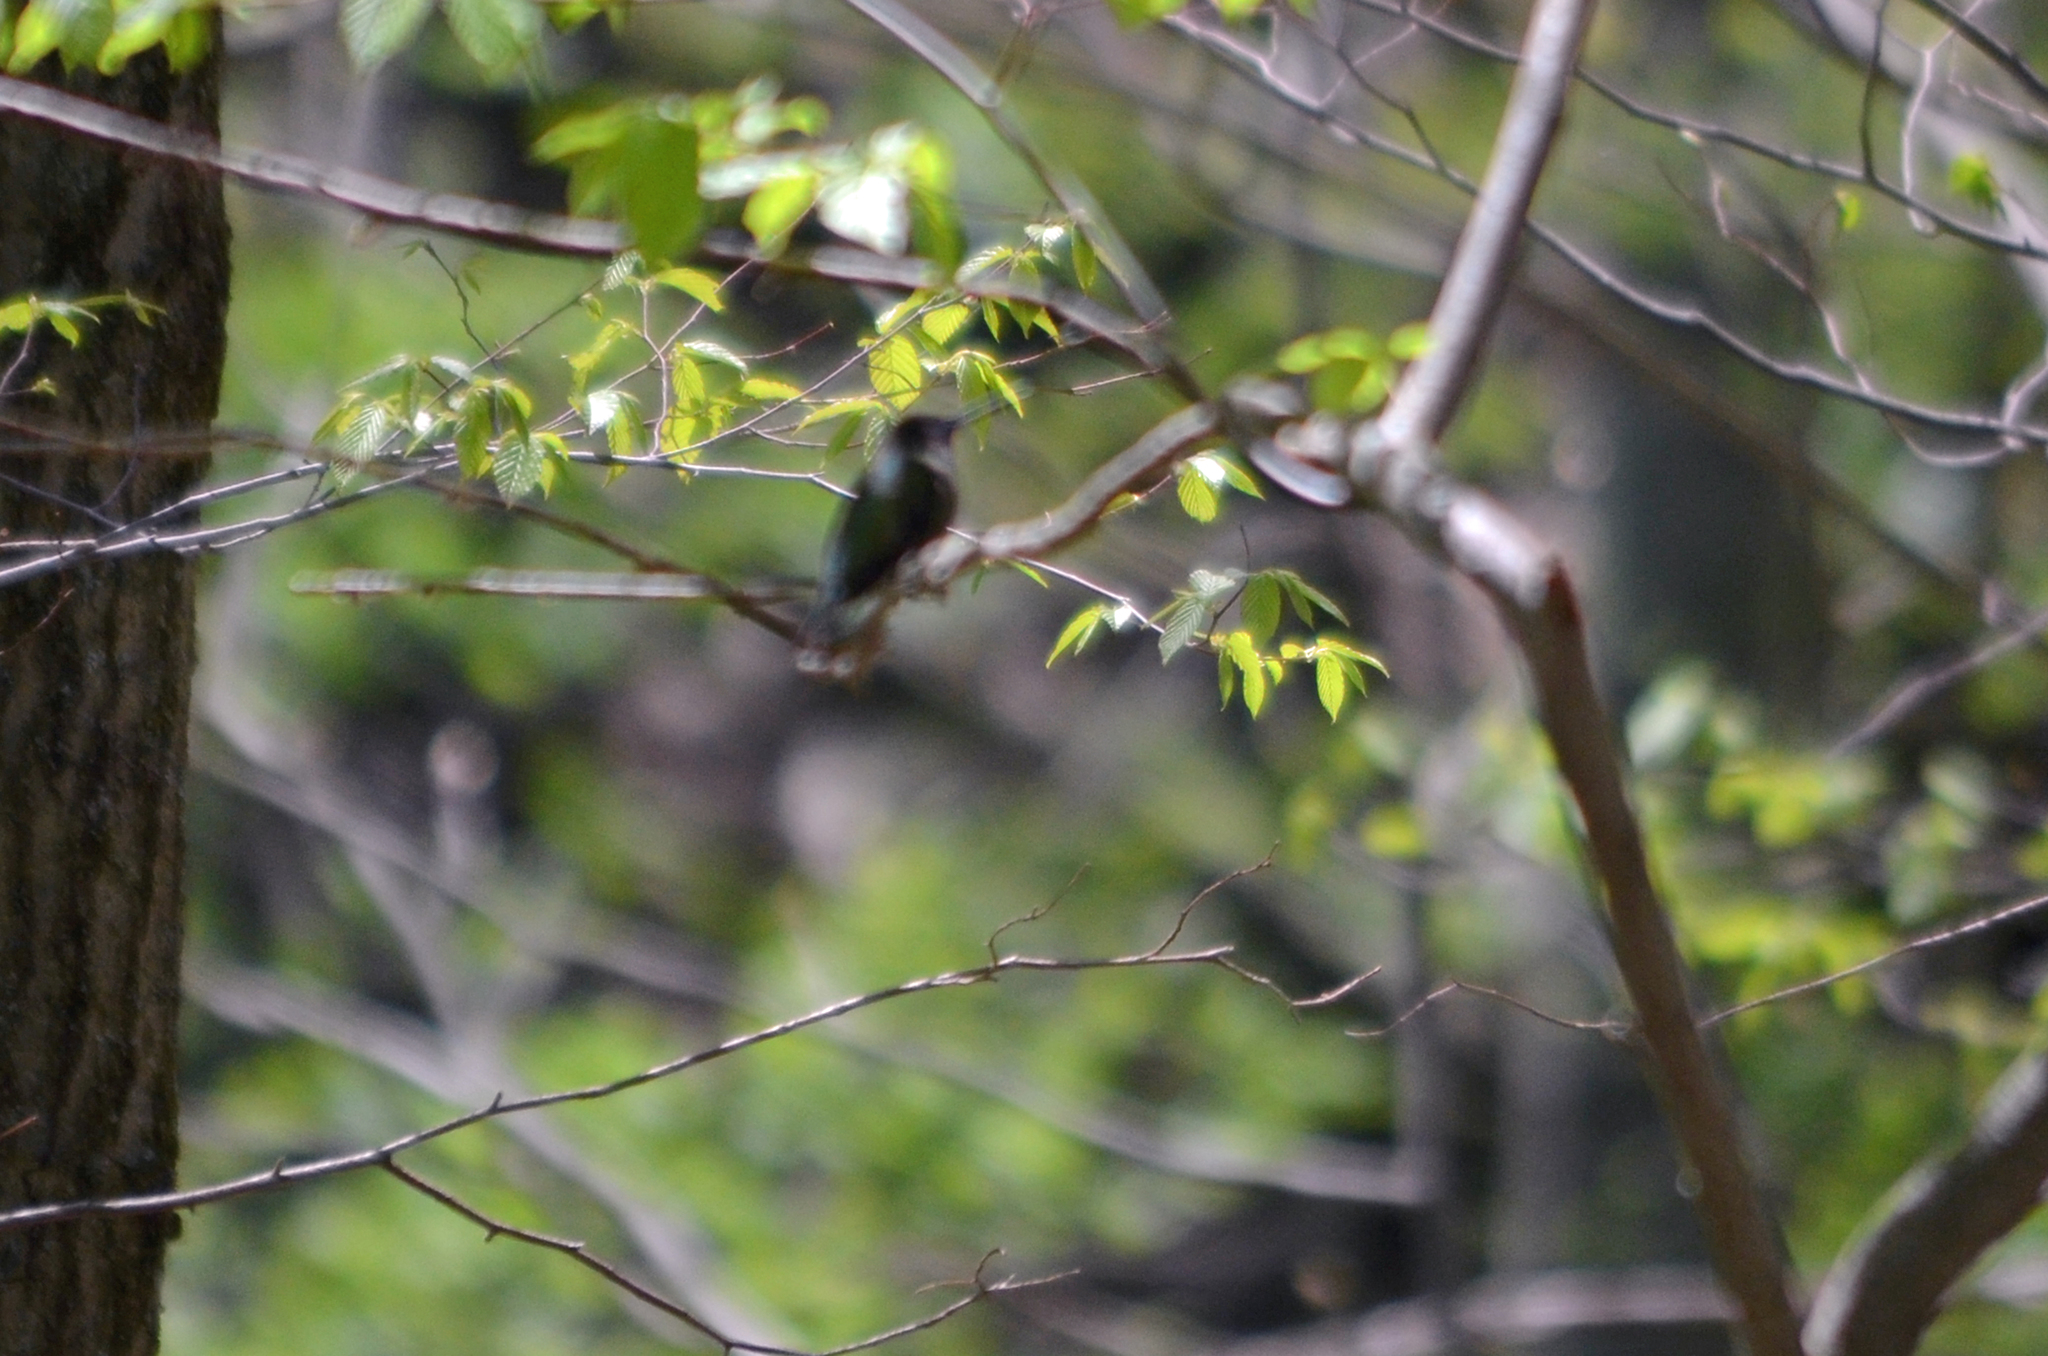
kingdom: Animalia
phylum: Chordata
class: Aves
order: Apodiformes
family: Trochilidae
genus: Archilochus
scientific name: Archilochus colubris
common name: Ruby-throated hummingbird
